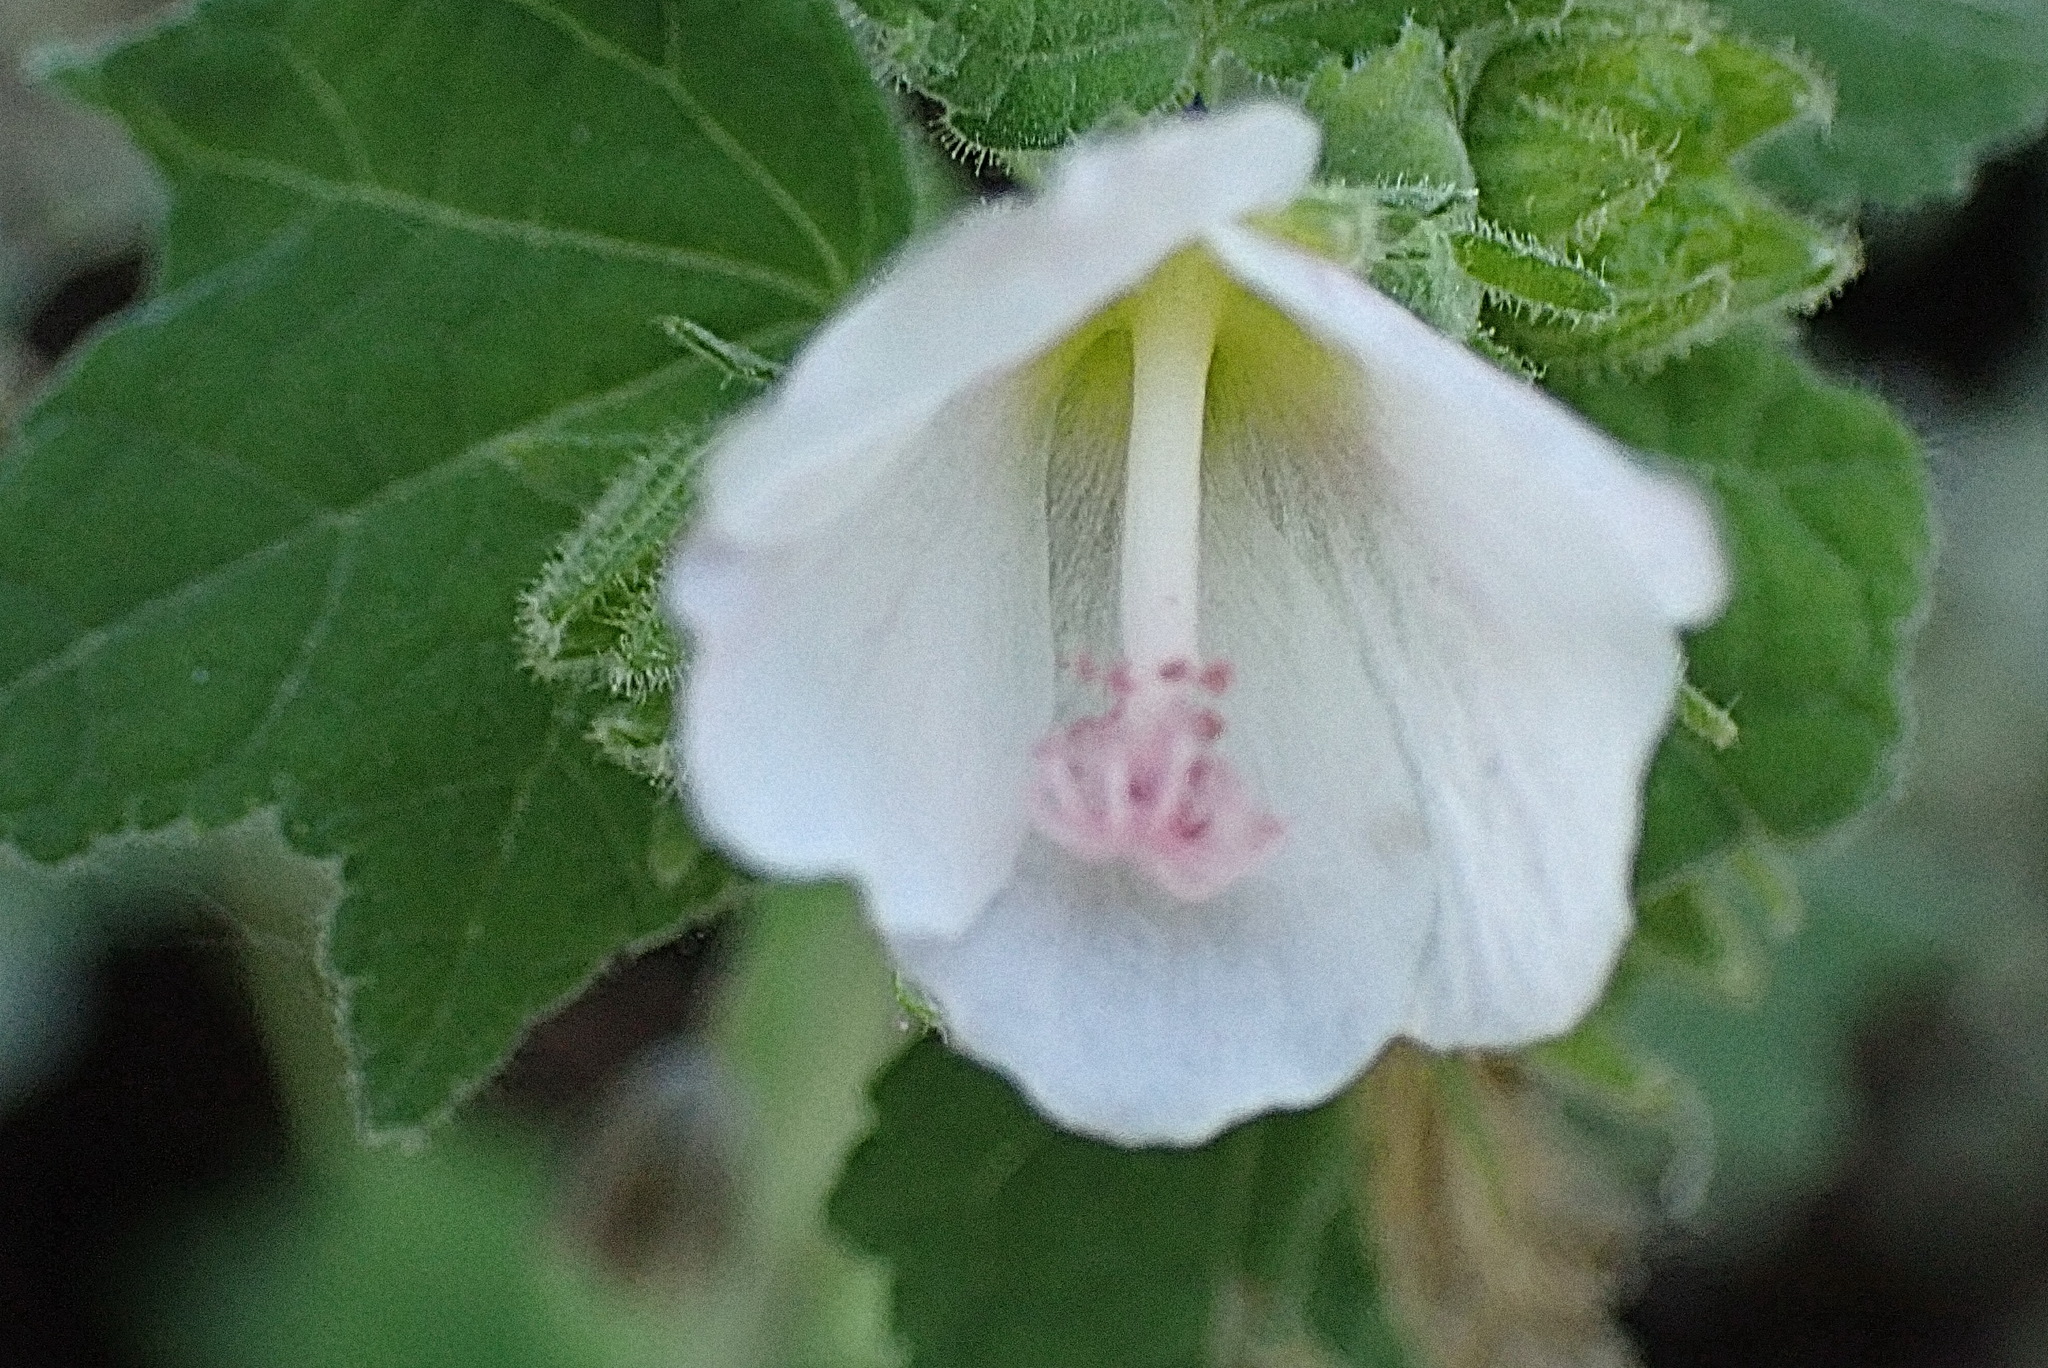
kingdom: Plantae
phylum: Tracheophyta
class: Magnoliopsida
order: Malvales
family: Malvaceae
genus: Pavonia
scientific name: Pavonia columella
